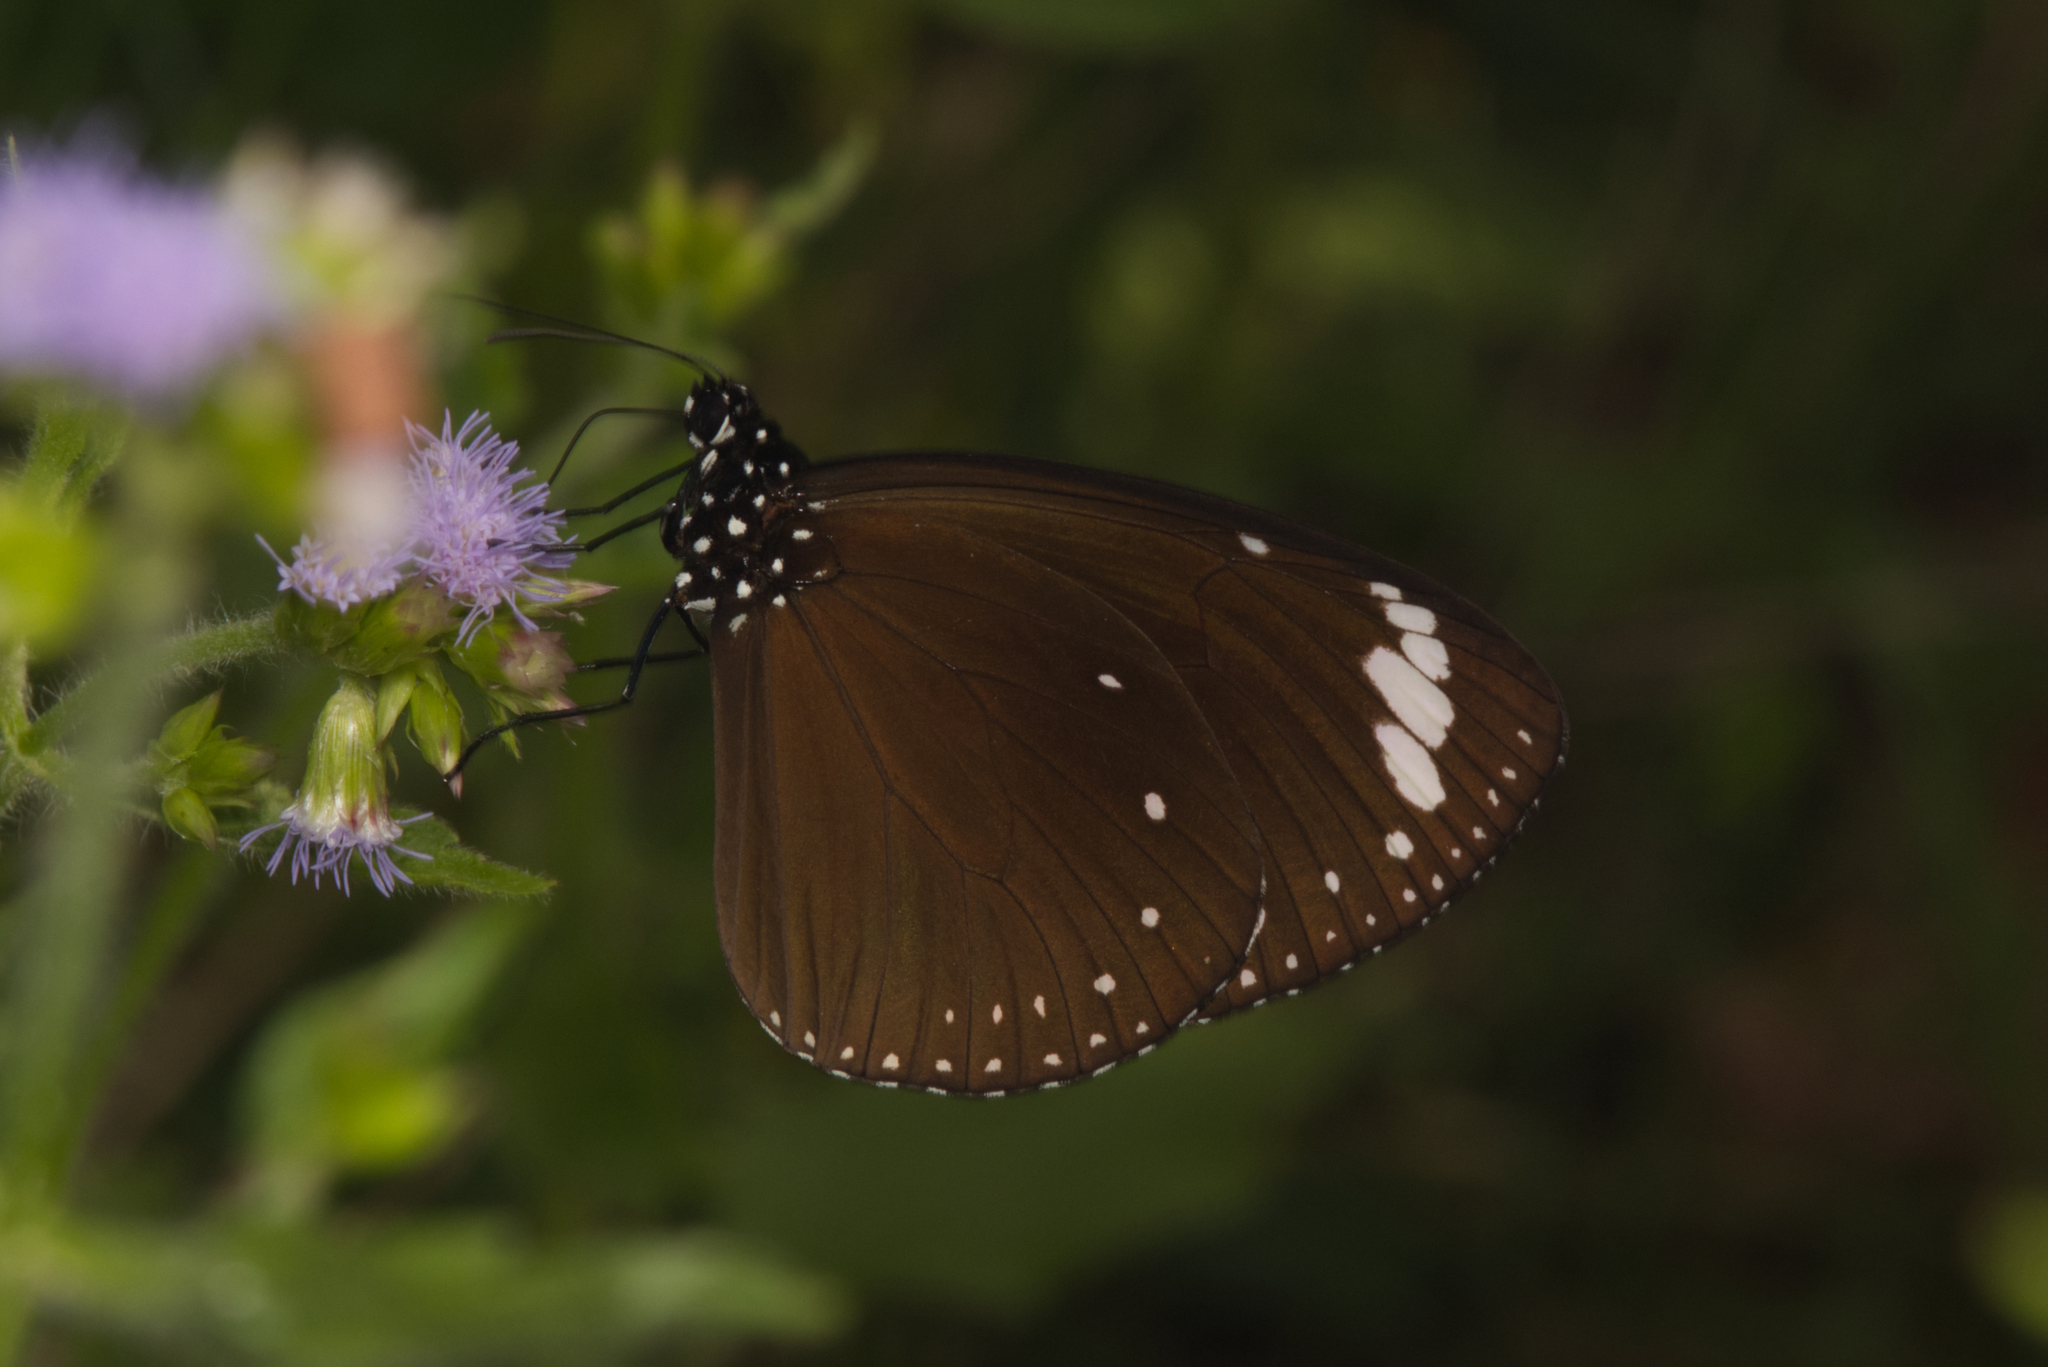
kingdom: Animalia
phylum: Arthropoda
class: Insecta
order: Lepidoptera
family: Nymphalidae
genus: Euploea
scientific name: Euploea tulliolus
